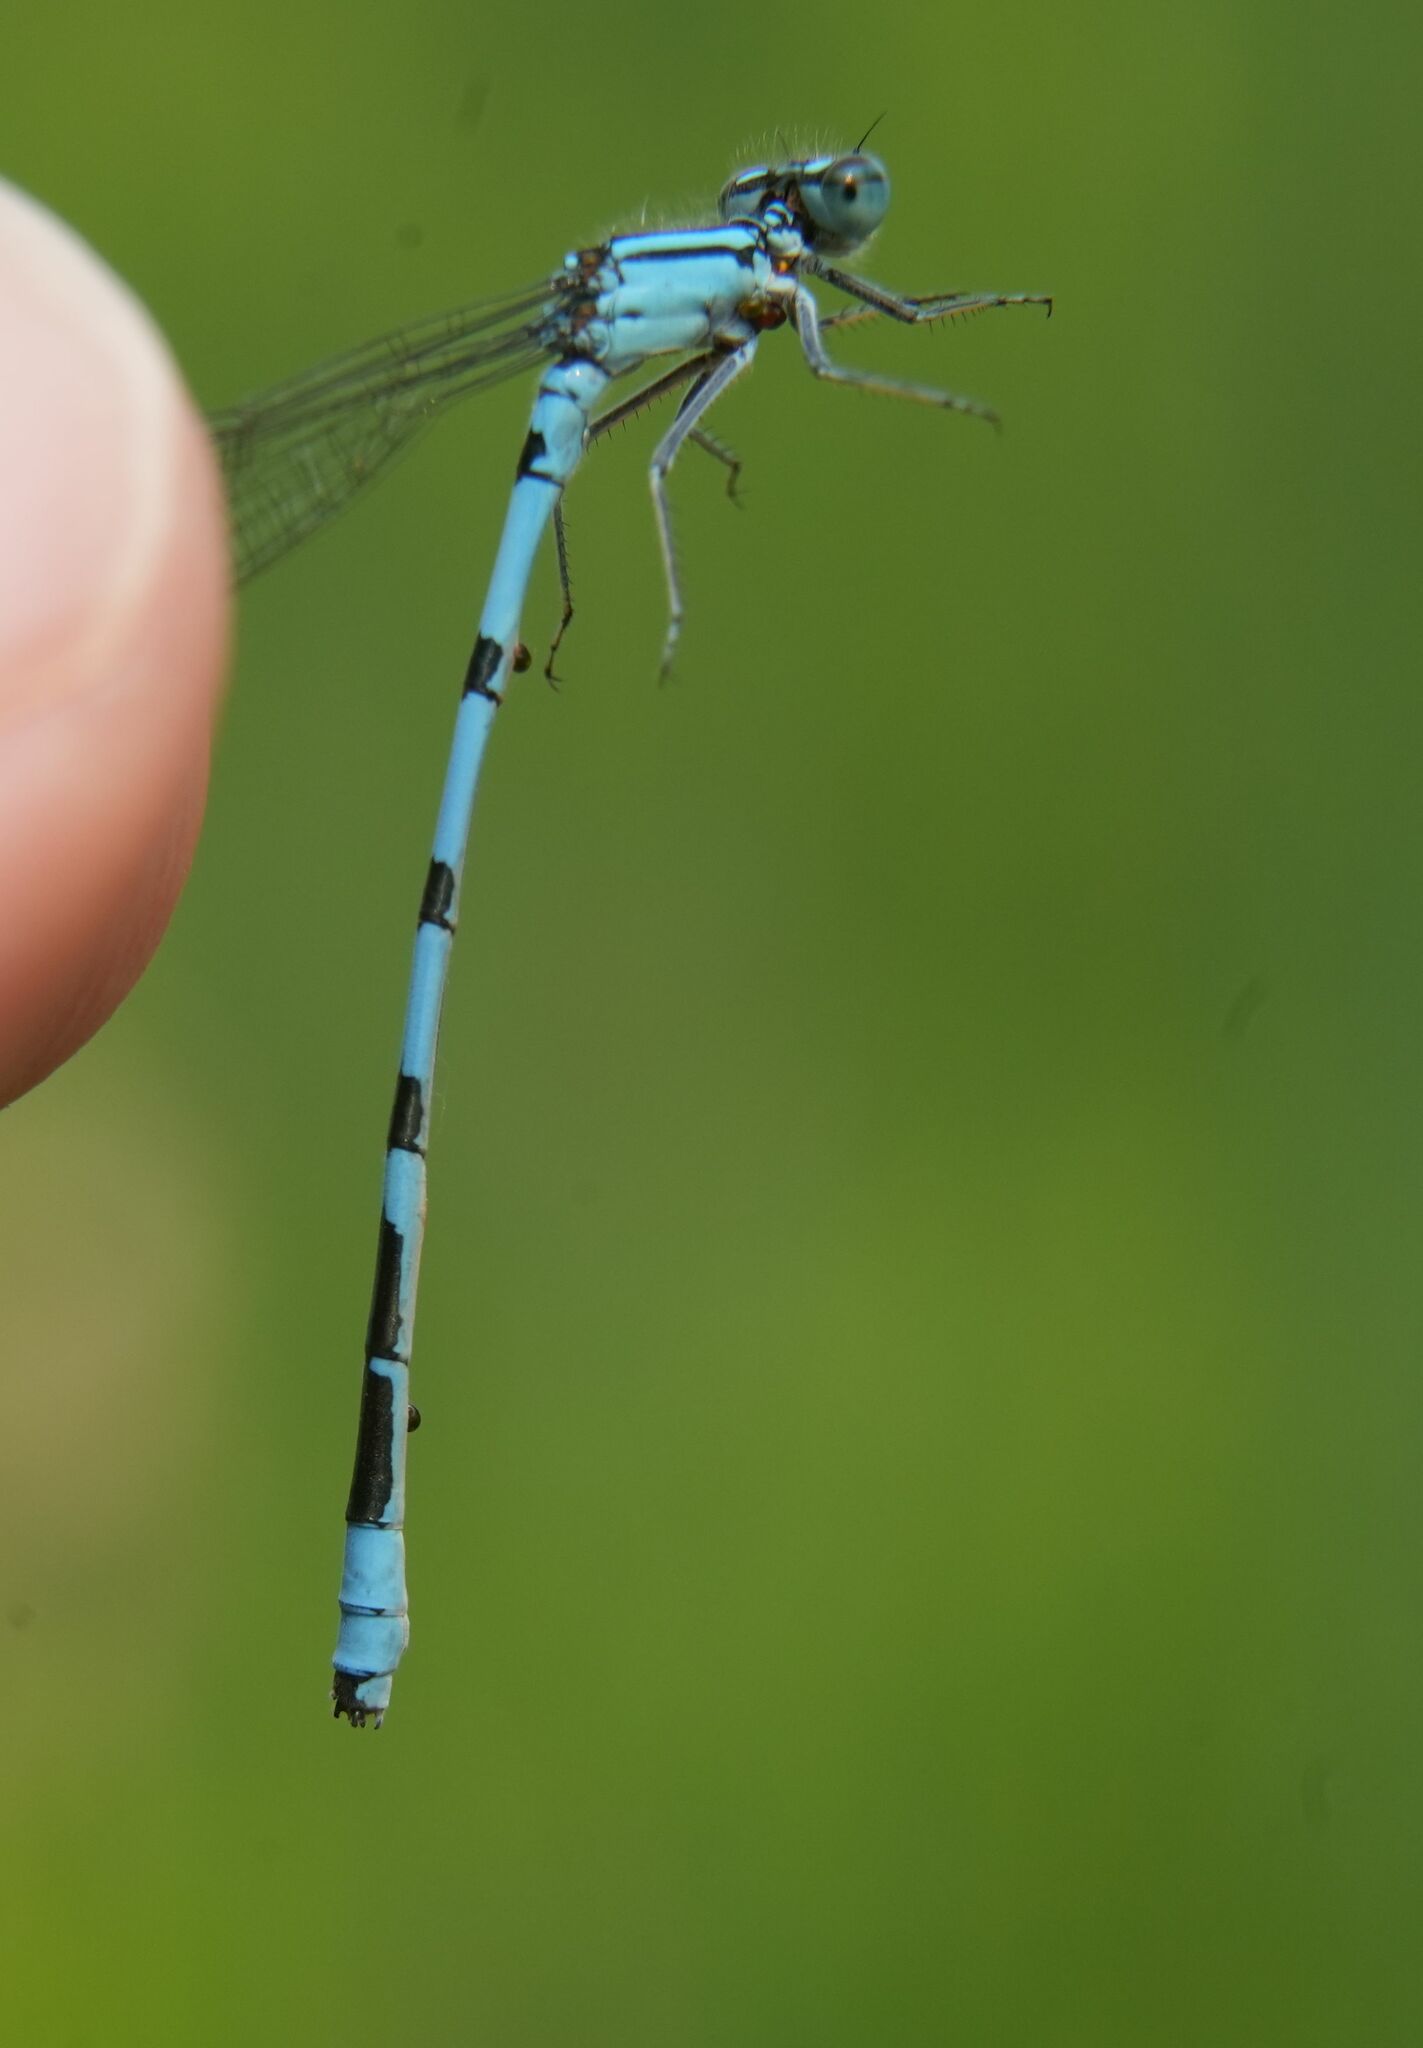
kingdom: Animalia
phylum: Arthropoda
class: Insecta
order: Odonata
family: Coenagrionidae
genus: Enallagma
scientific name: Enallagma ebrium
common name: Marsh bluet
